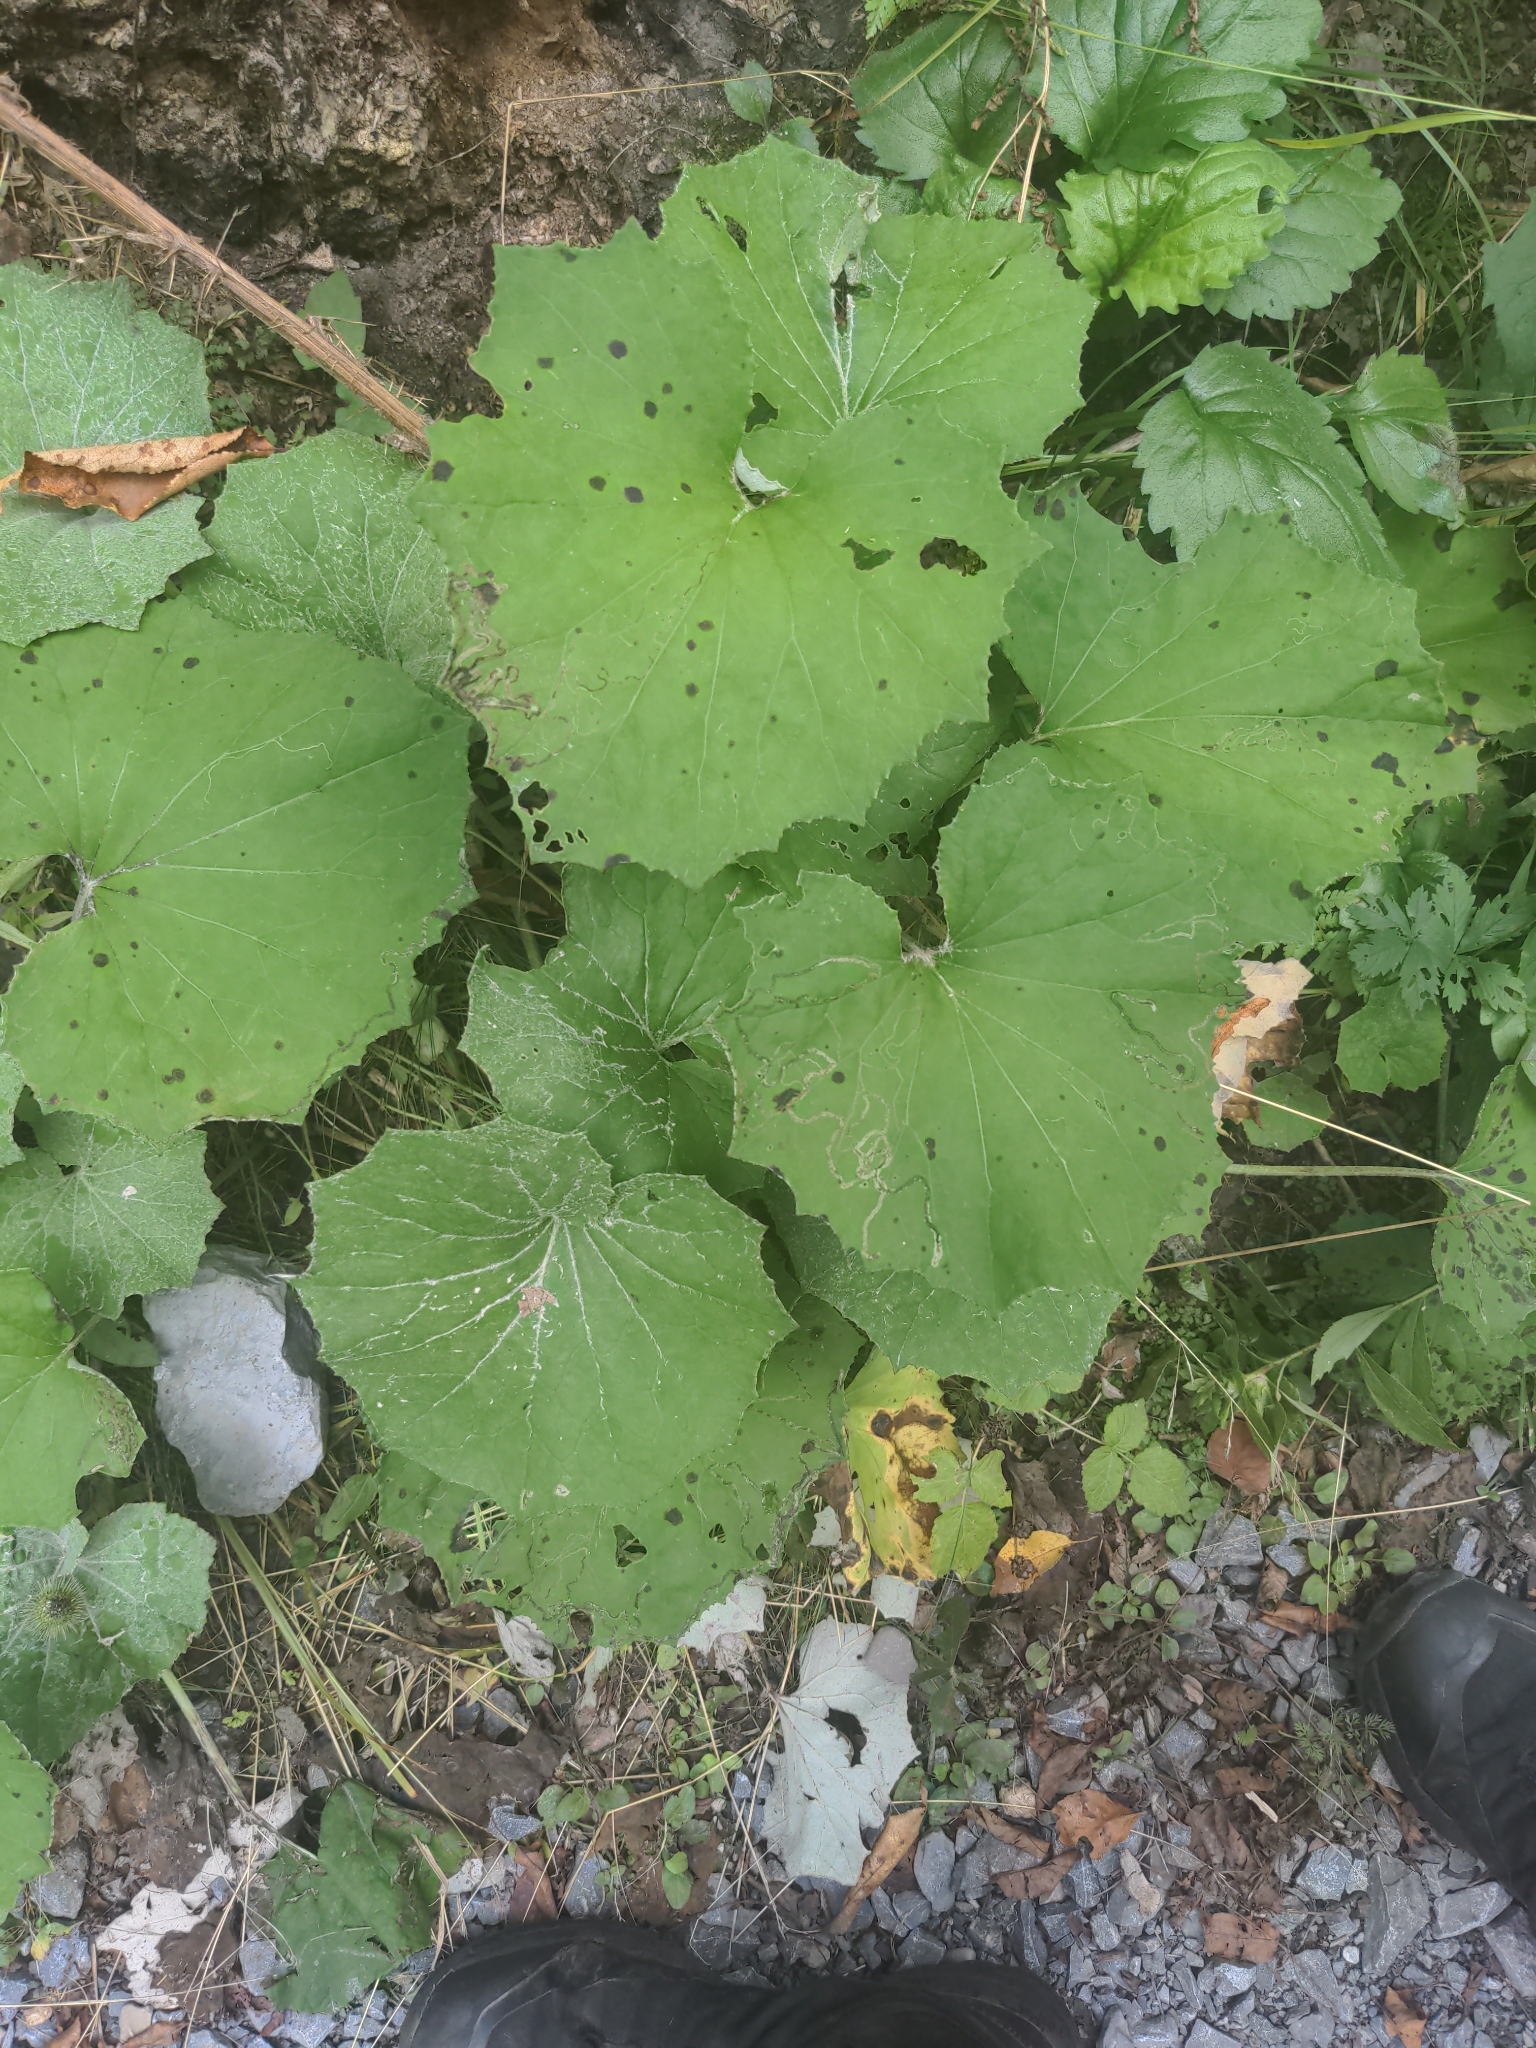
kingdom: Plantae
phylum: Tracheophyta
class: Magnoliopsida
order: Asterales
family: Asteraceae
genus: Tussilago
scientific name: Tussilago farfara
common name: Coltsfoot
